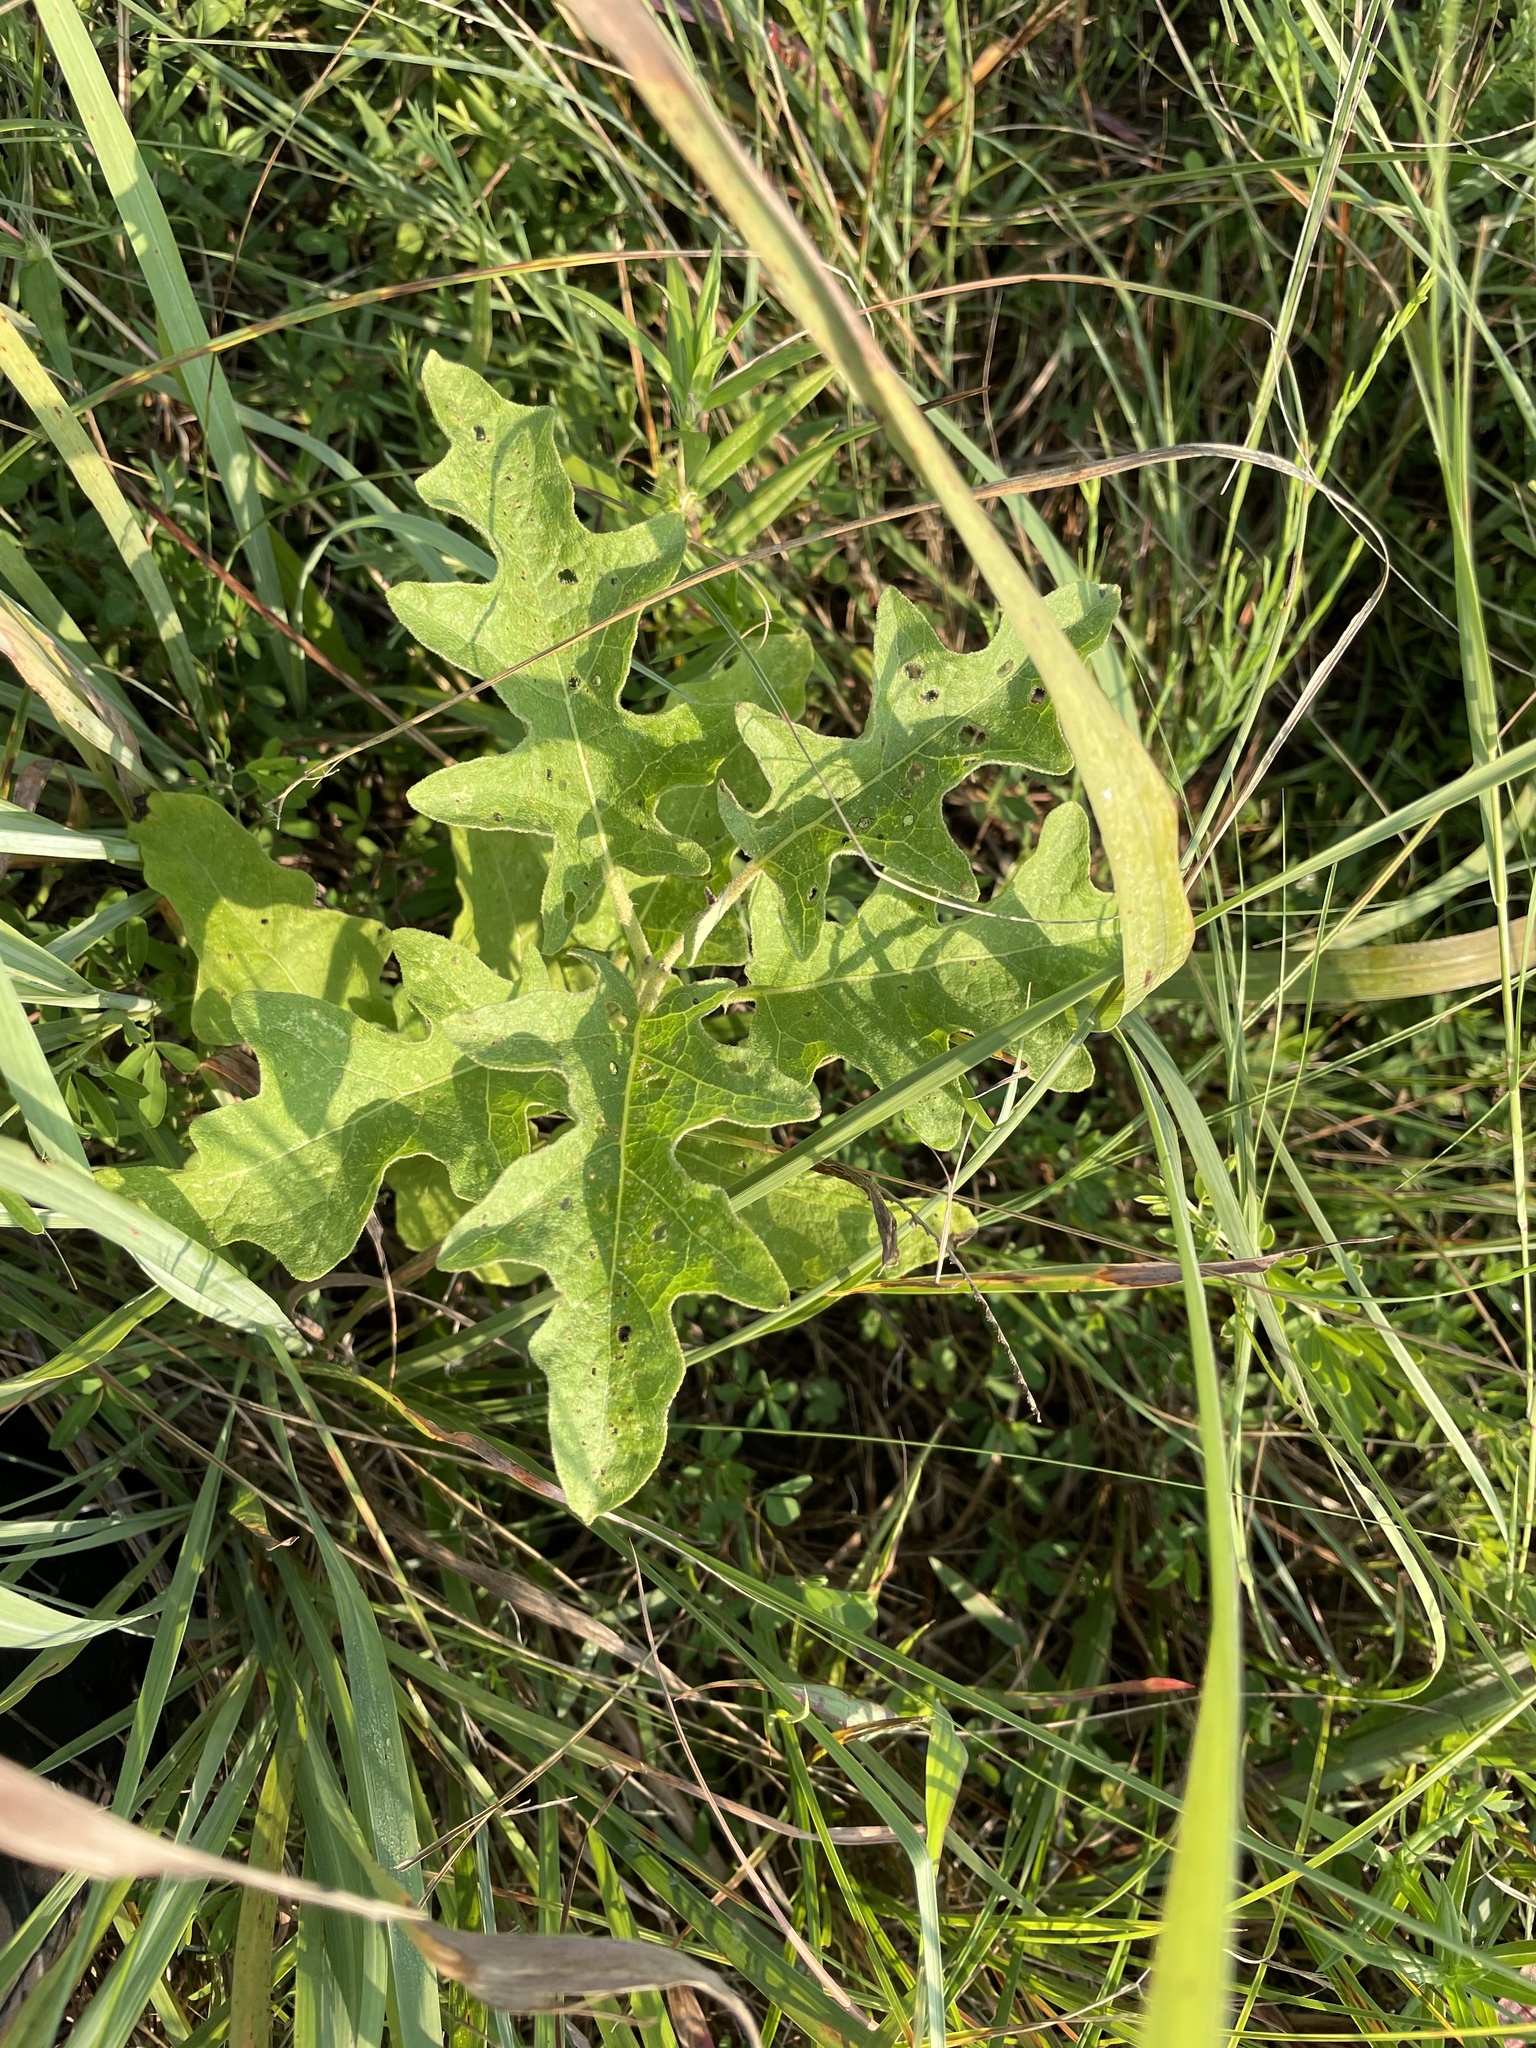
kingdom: Plantae
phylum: Tracheophyta
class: Magnoliopsida
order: Solanales
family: Solanaceae
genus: Solanum
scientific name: Solanum dimidiatum
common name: Carolina horse-nettle
